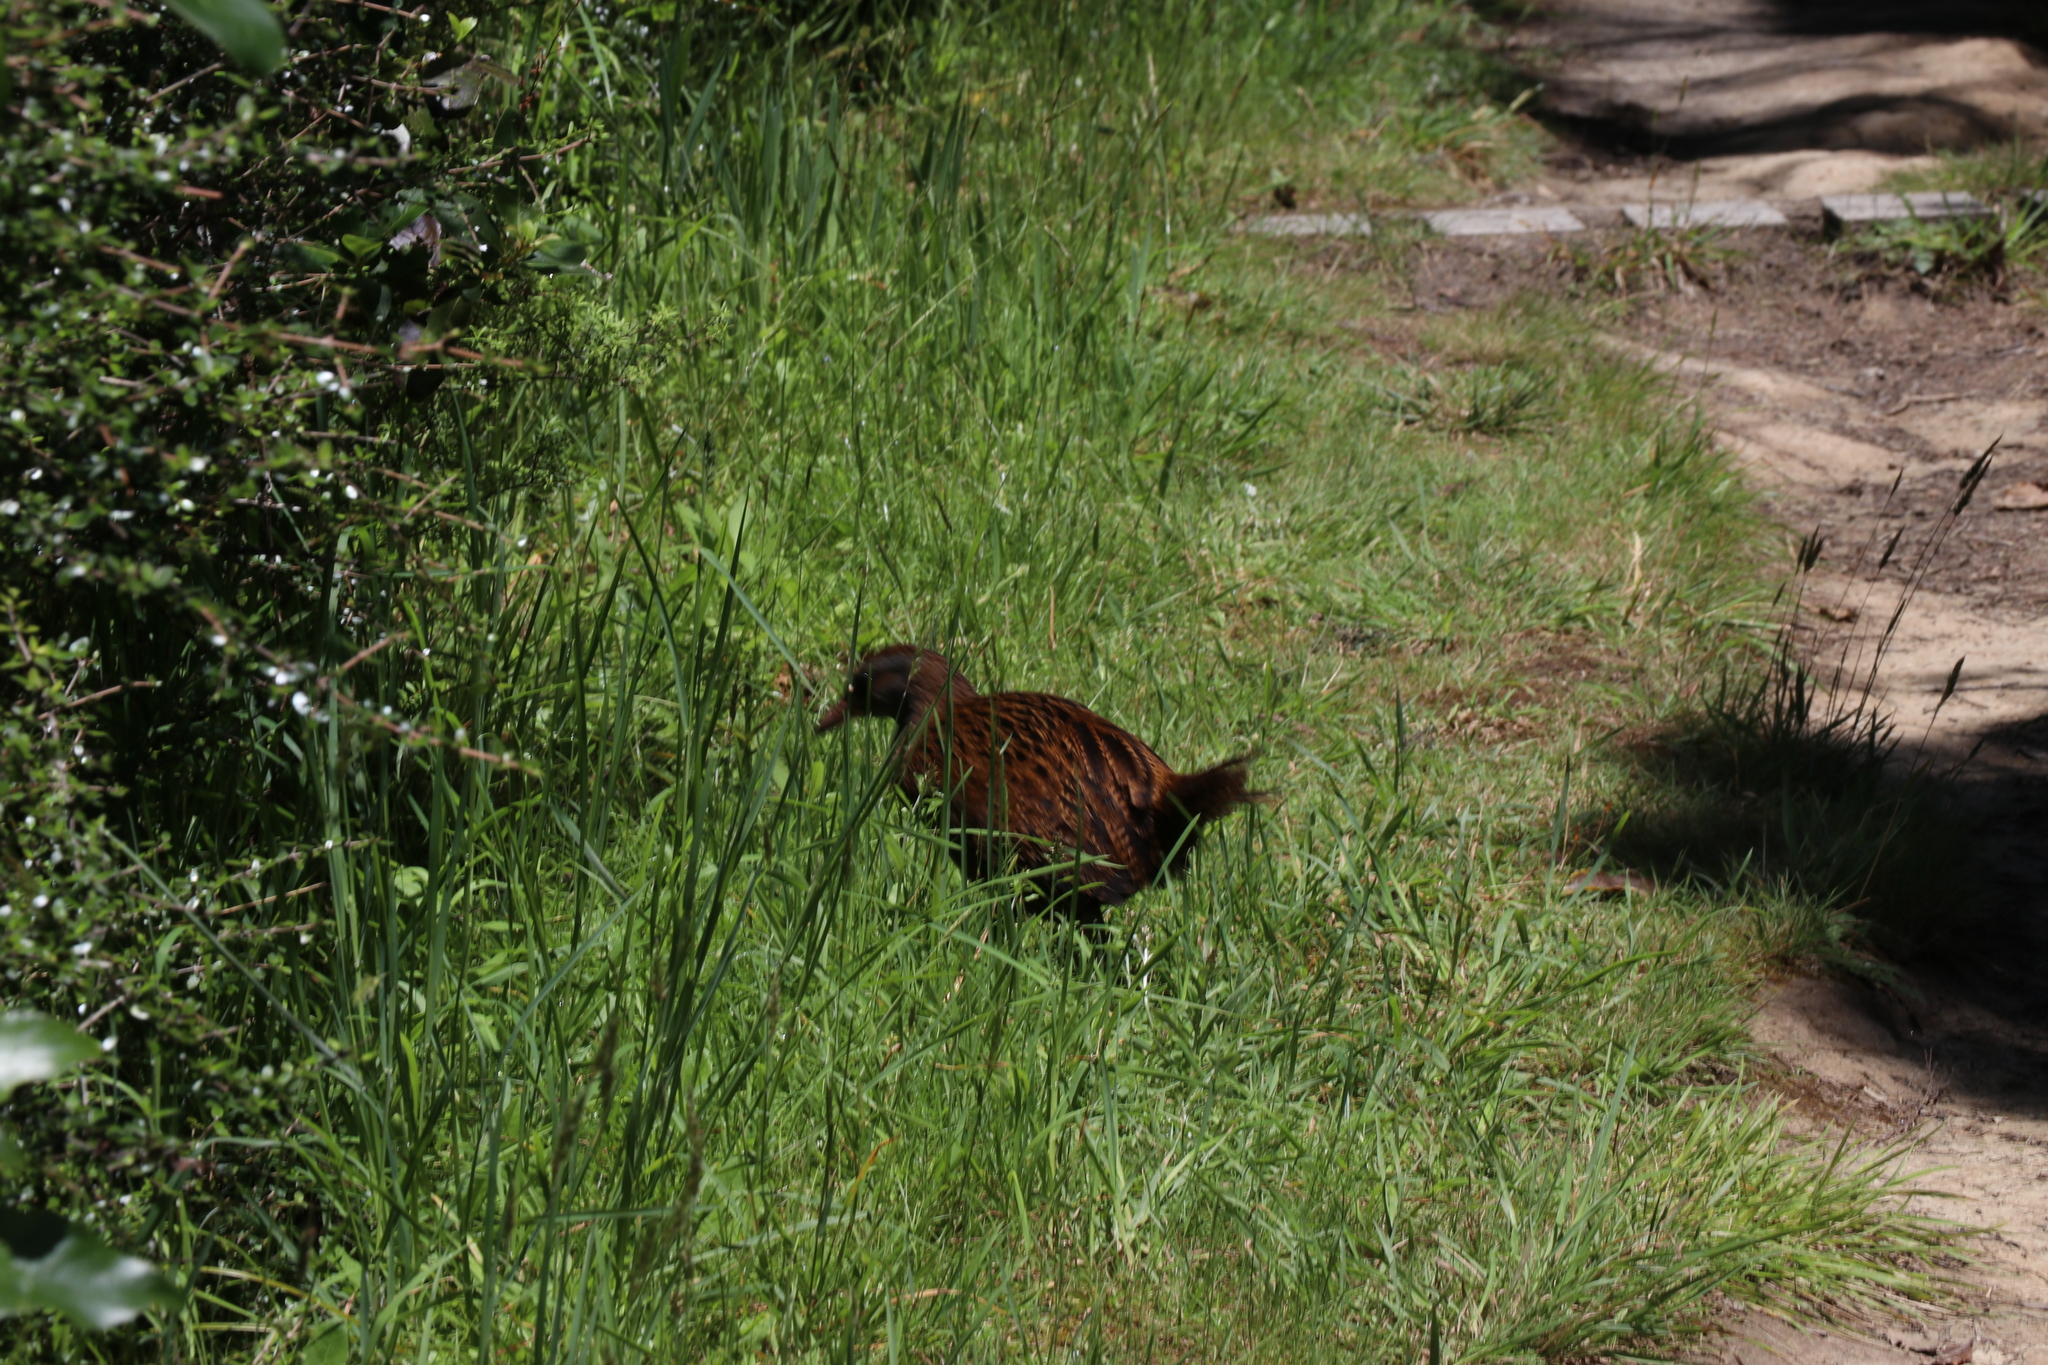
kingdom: Animalia
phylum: Chordata
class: Aves
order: Gruiformes
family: Rallidae
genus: Gallirallus
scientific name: Gallirallus australis
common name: Weka
